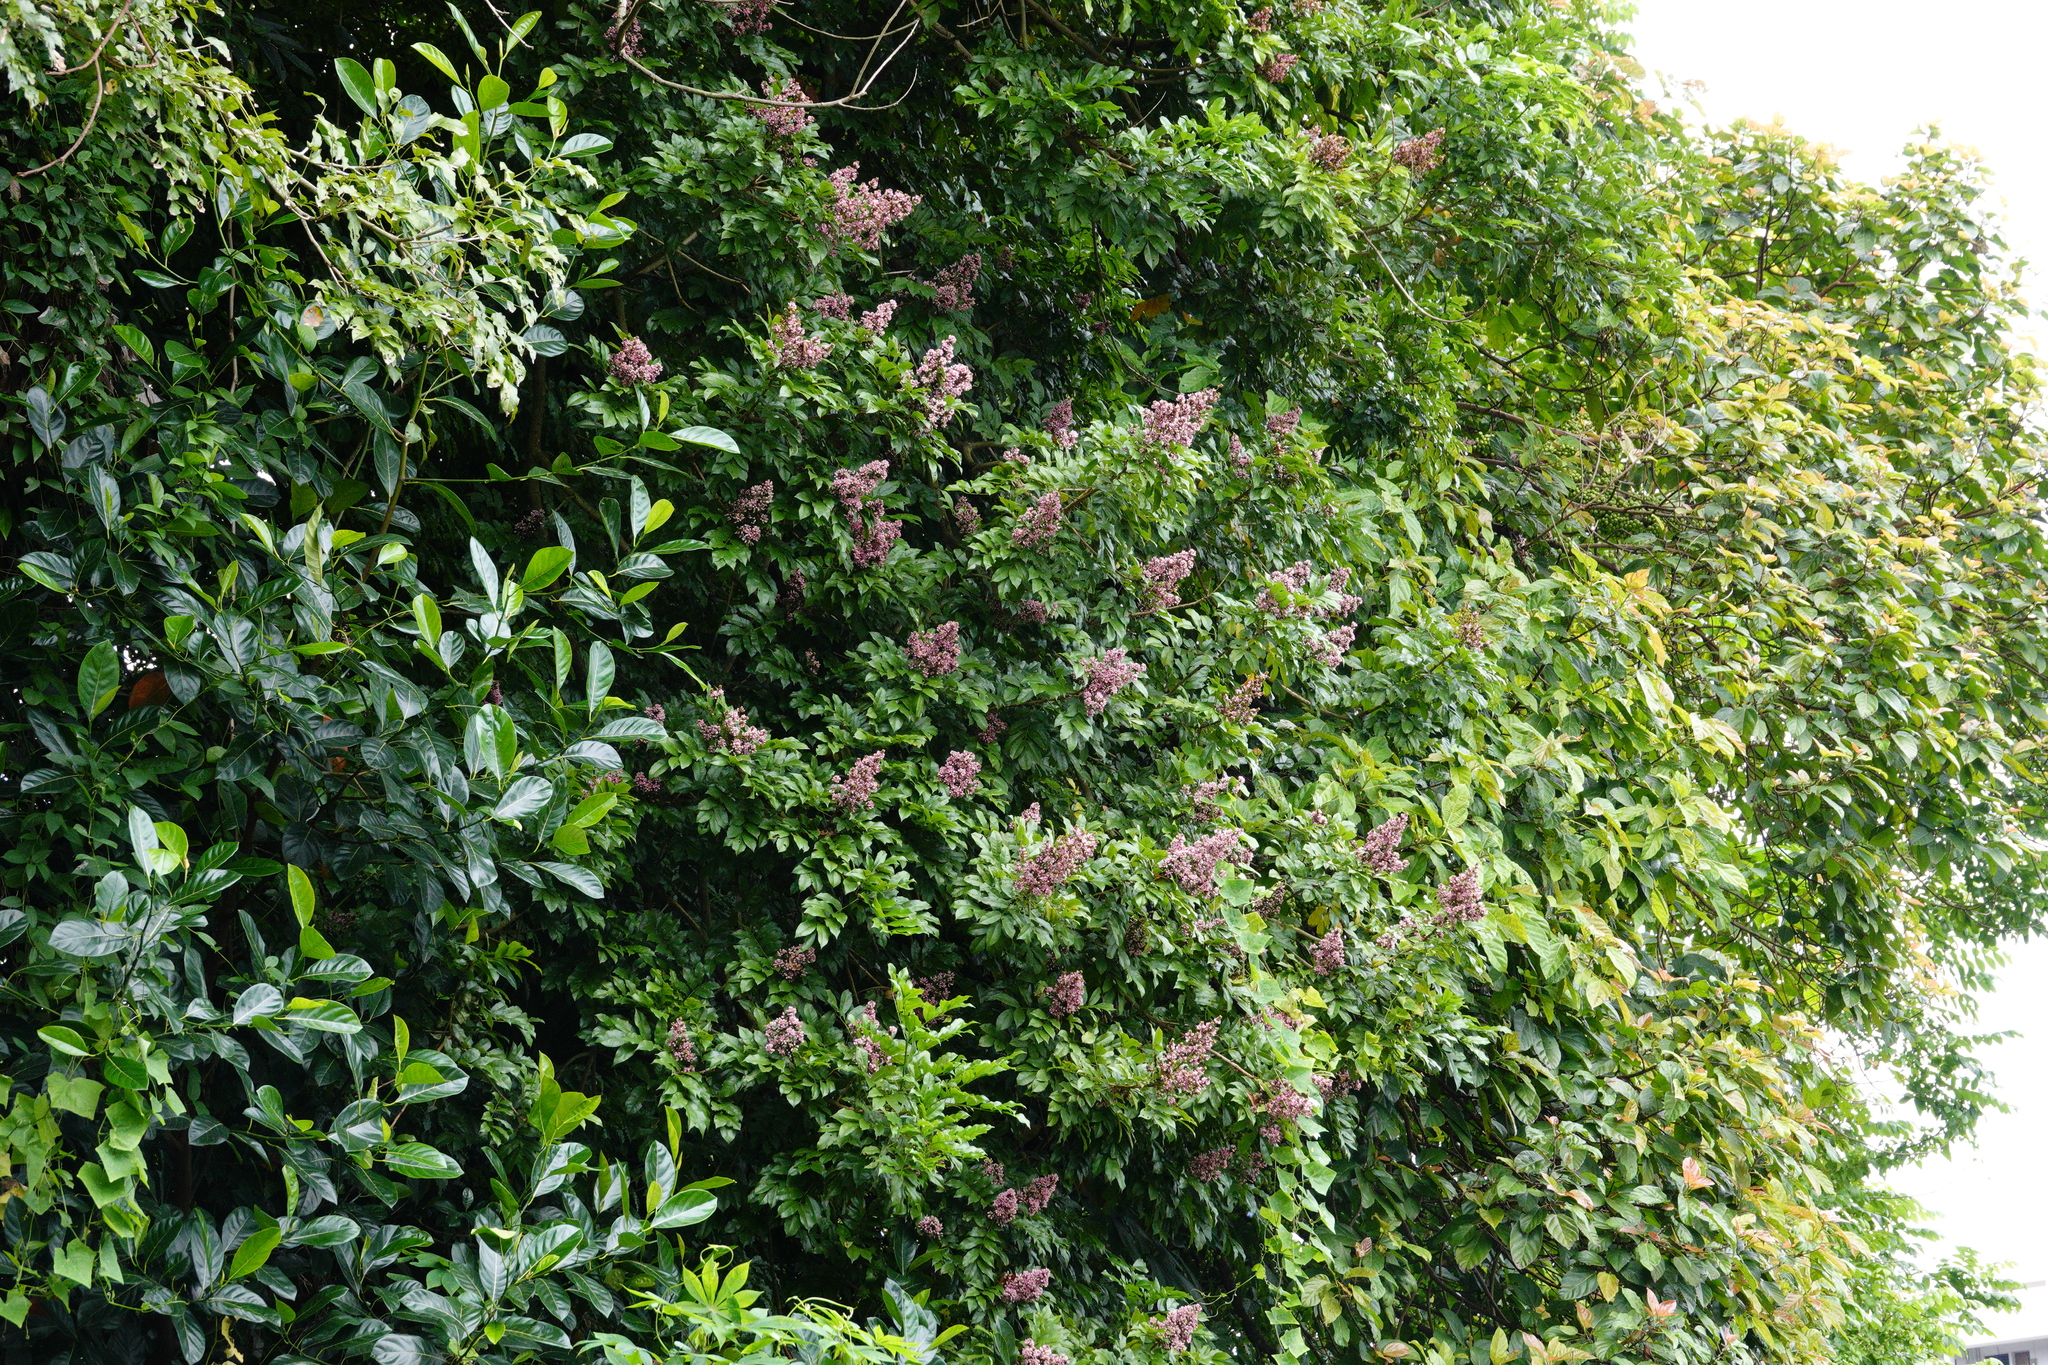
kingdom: Plantae
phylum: Tracheophyta
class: Magnoliopsida
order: Fabales
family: Fabaceae
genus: Andira
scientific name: Andira inermis
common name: Angelin
